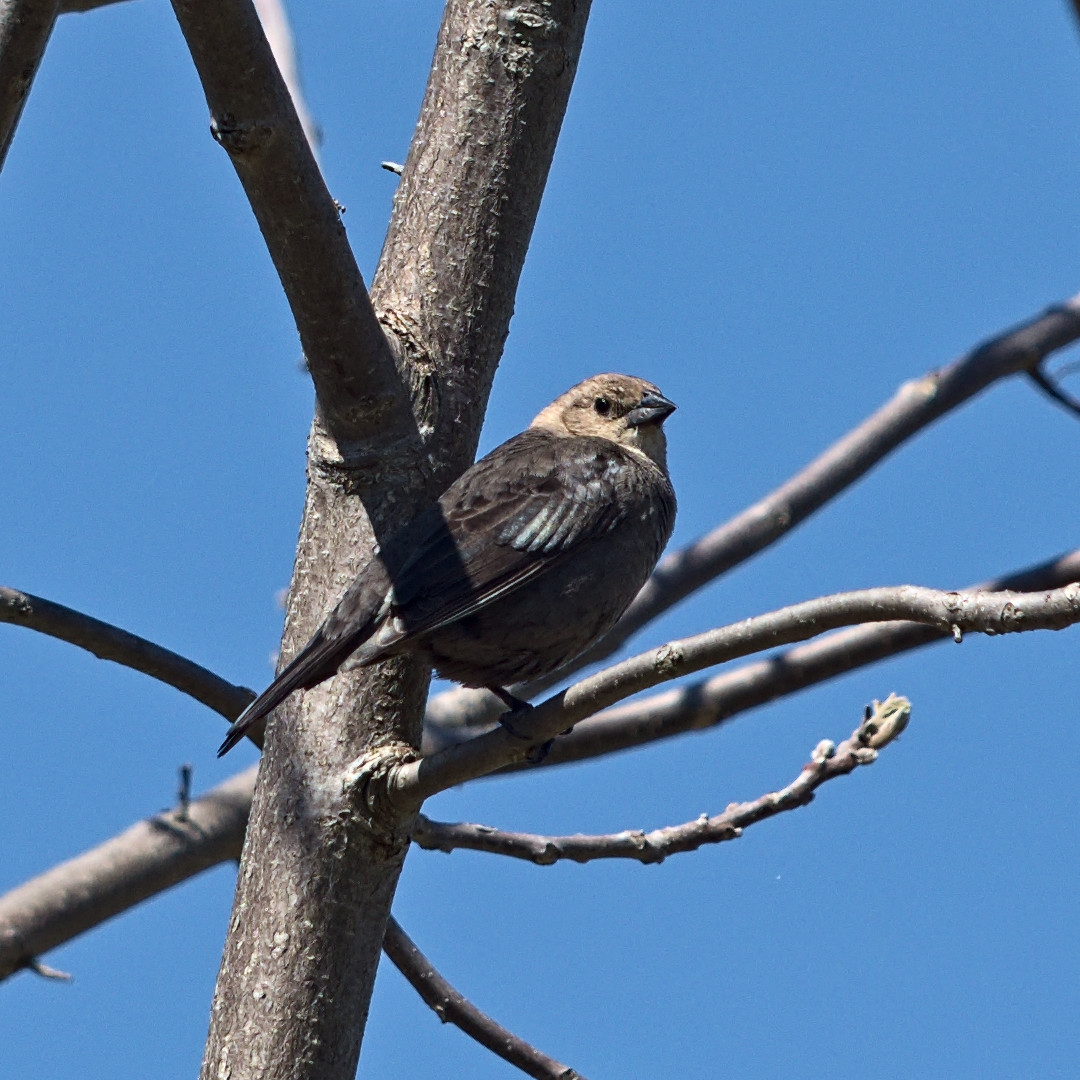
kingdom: Animalia
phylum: Chordata
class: Aves
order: Passeriformes
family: Icteridae
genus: Molothrus
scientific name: Molothrus ater
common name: Brown-headed cowbird
